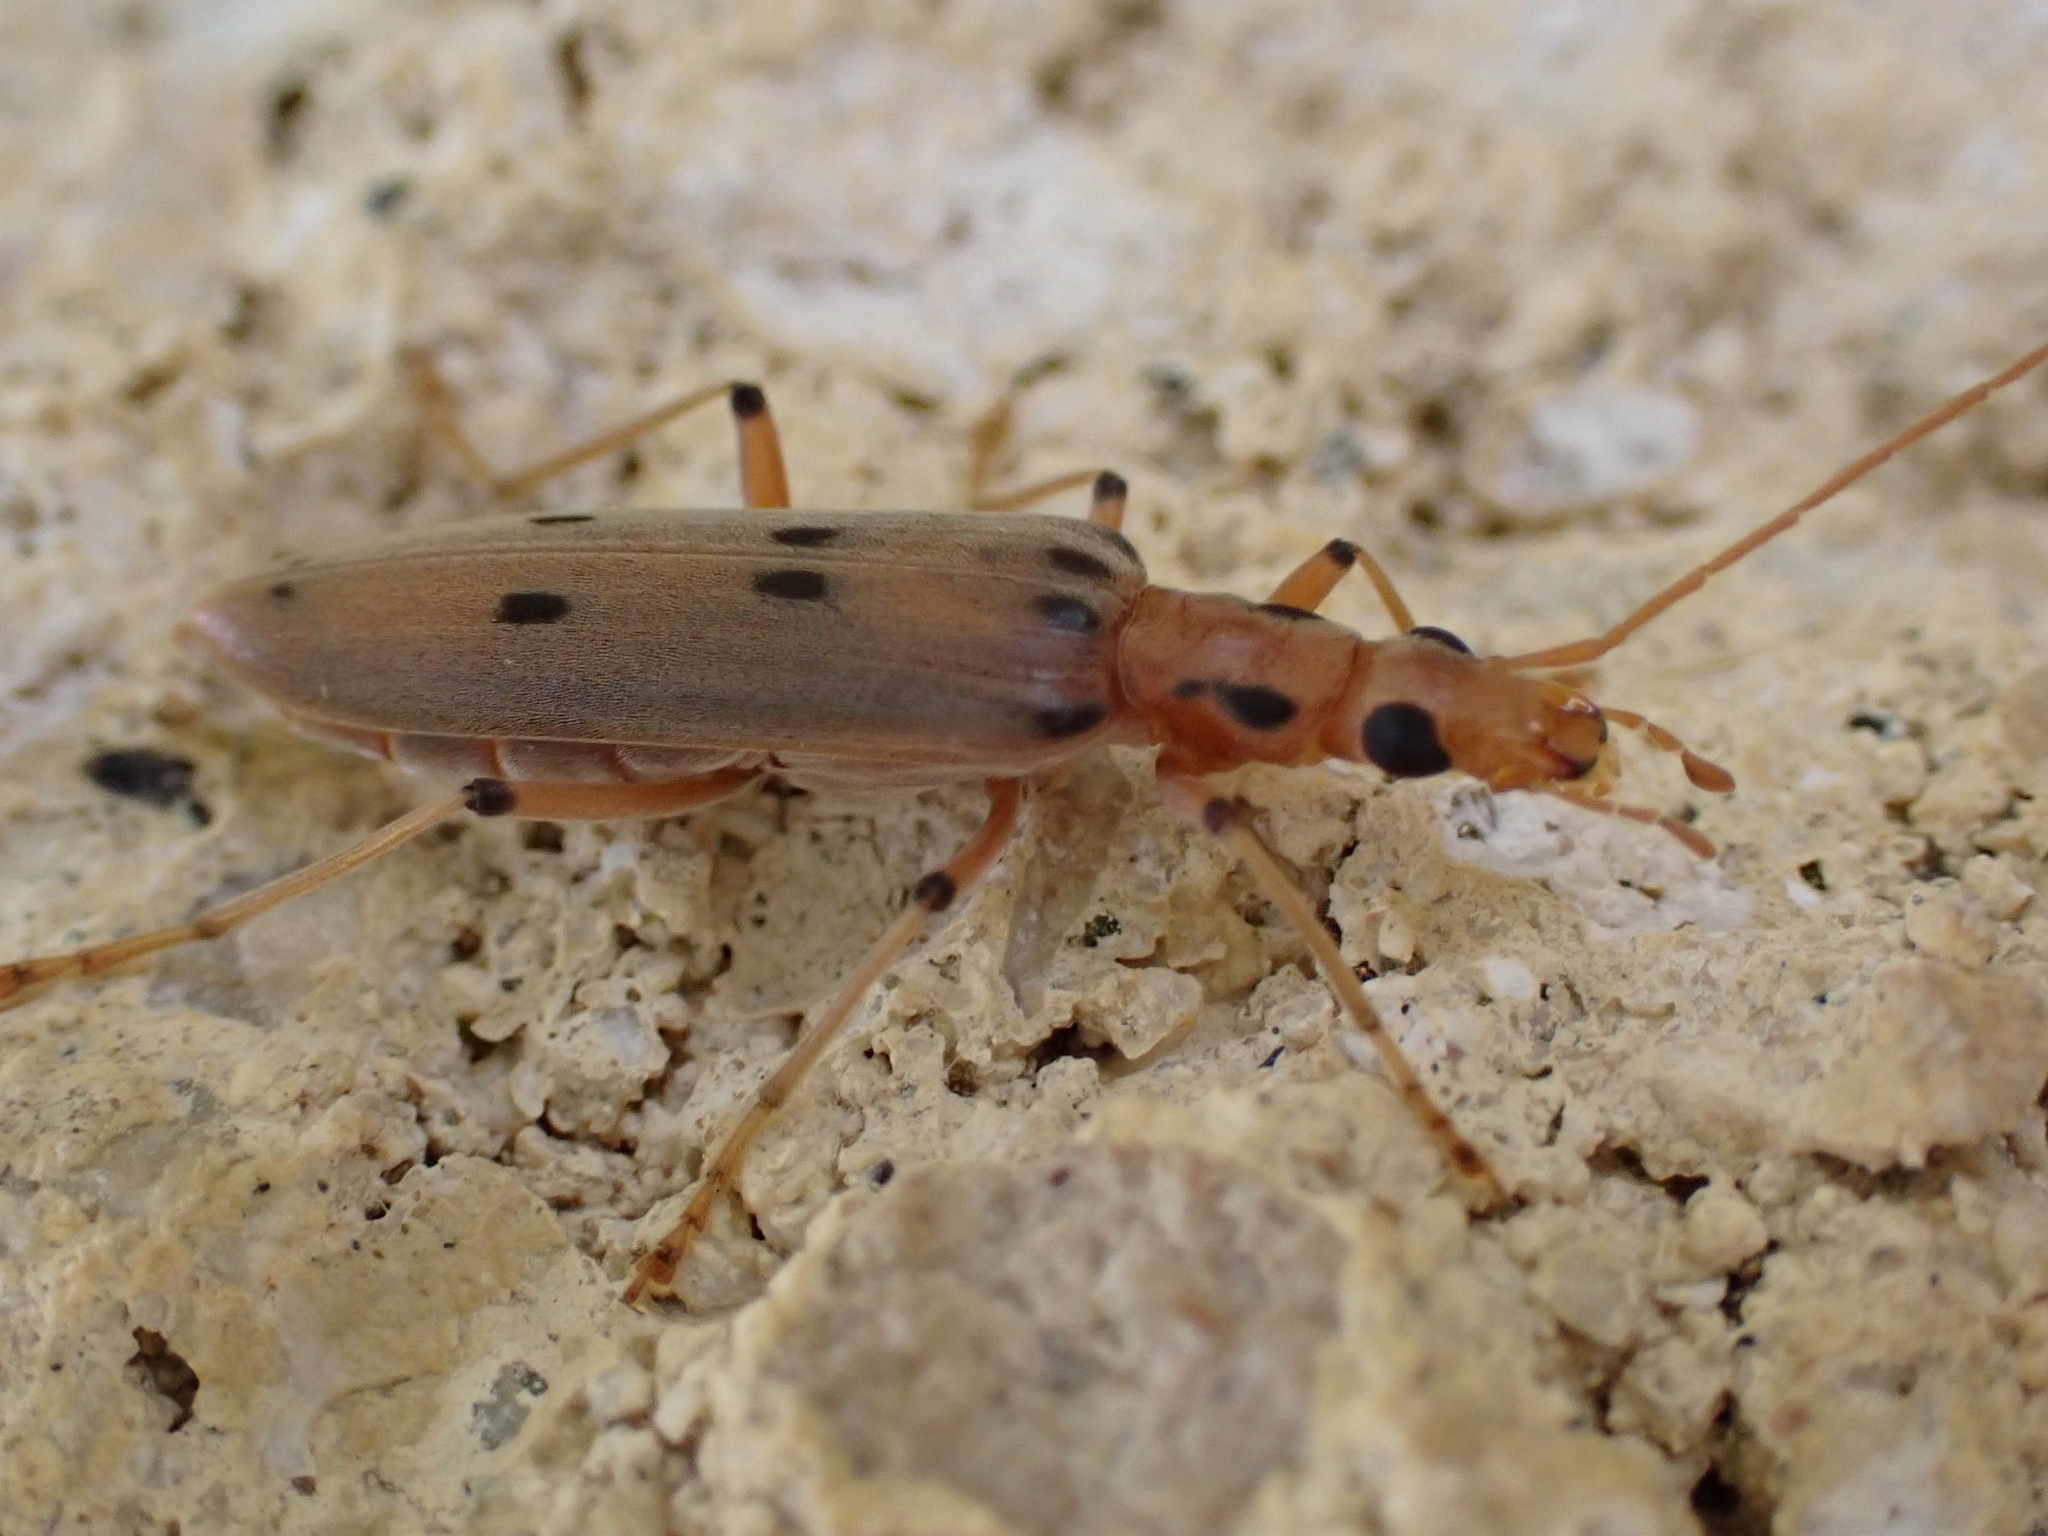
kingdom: Animalia
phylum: Arthropoda
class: Insecta
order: Coleoptera
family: Oedemeridae
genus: Parisopalpus
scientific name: Parisopalpus
